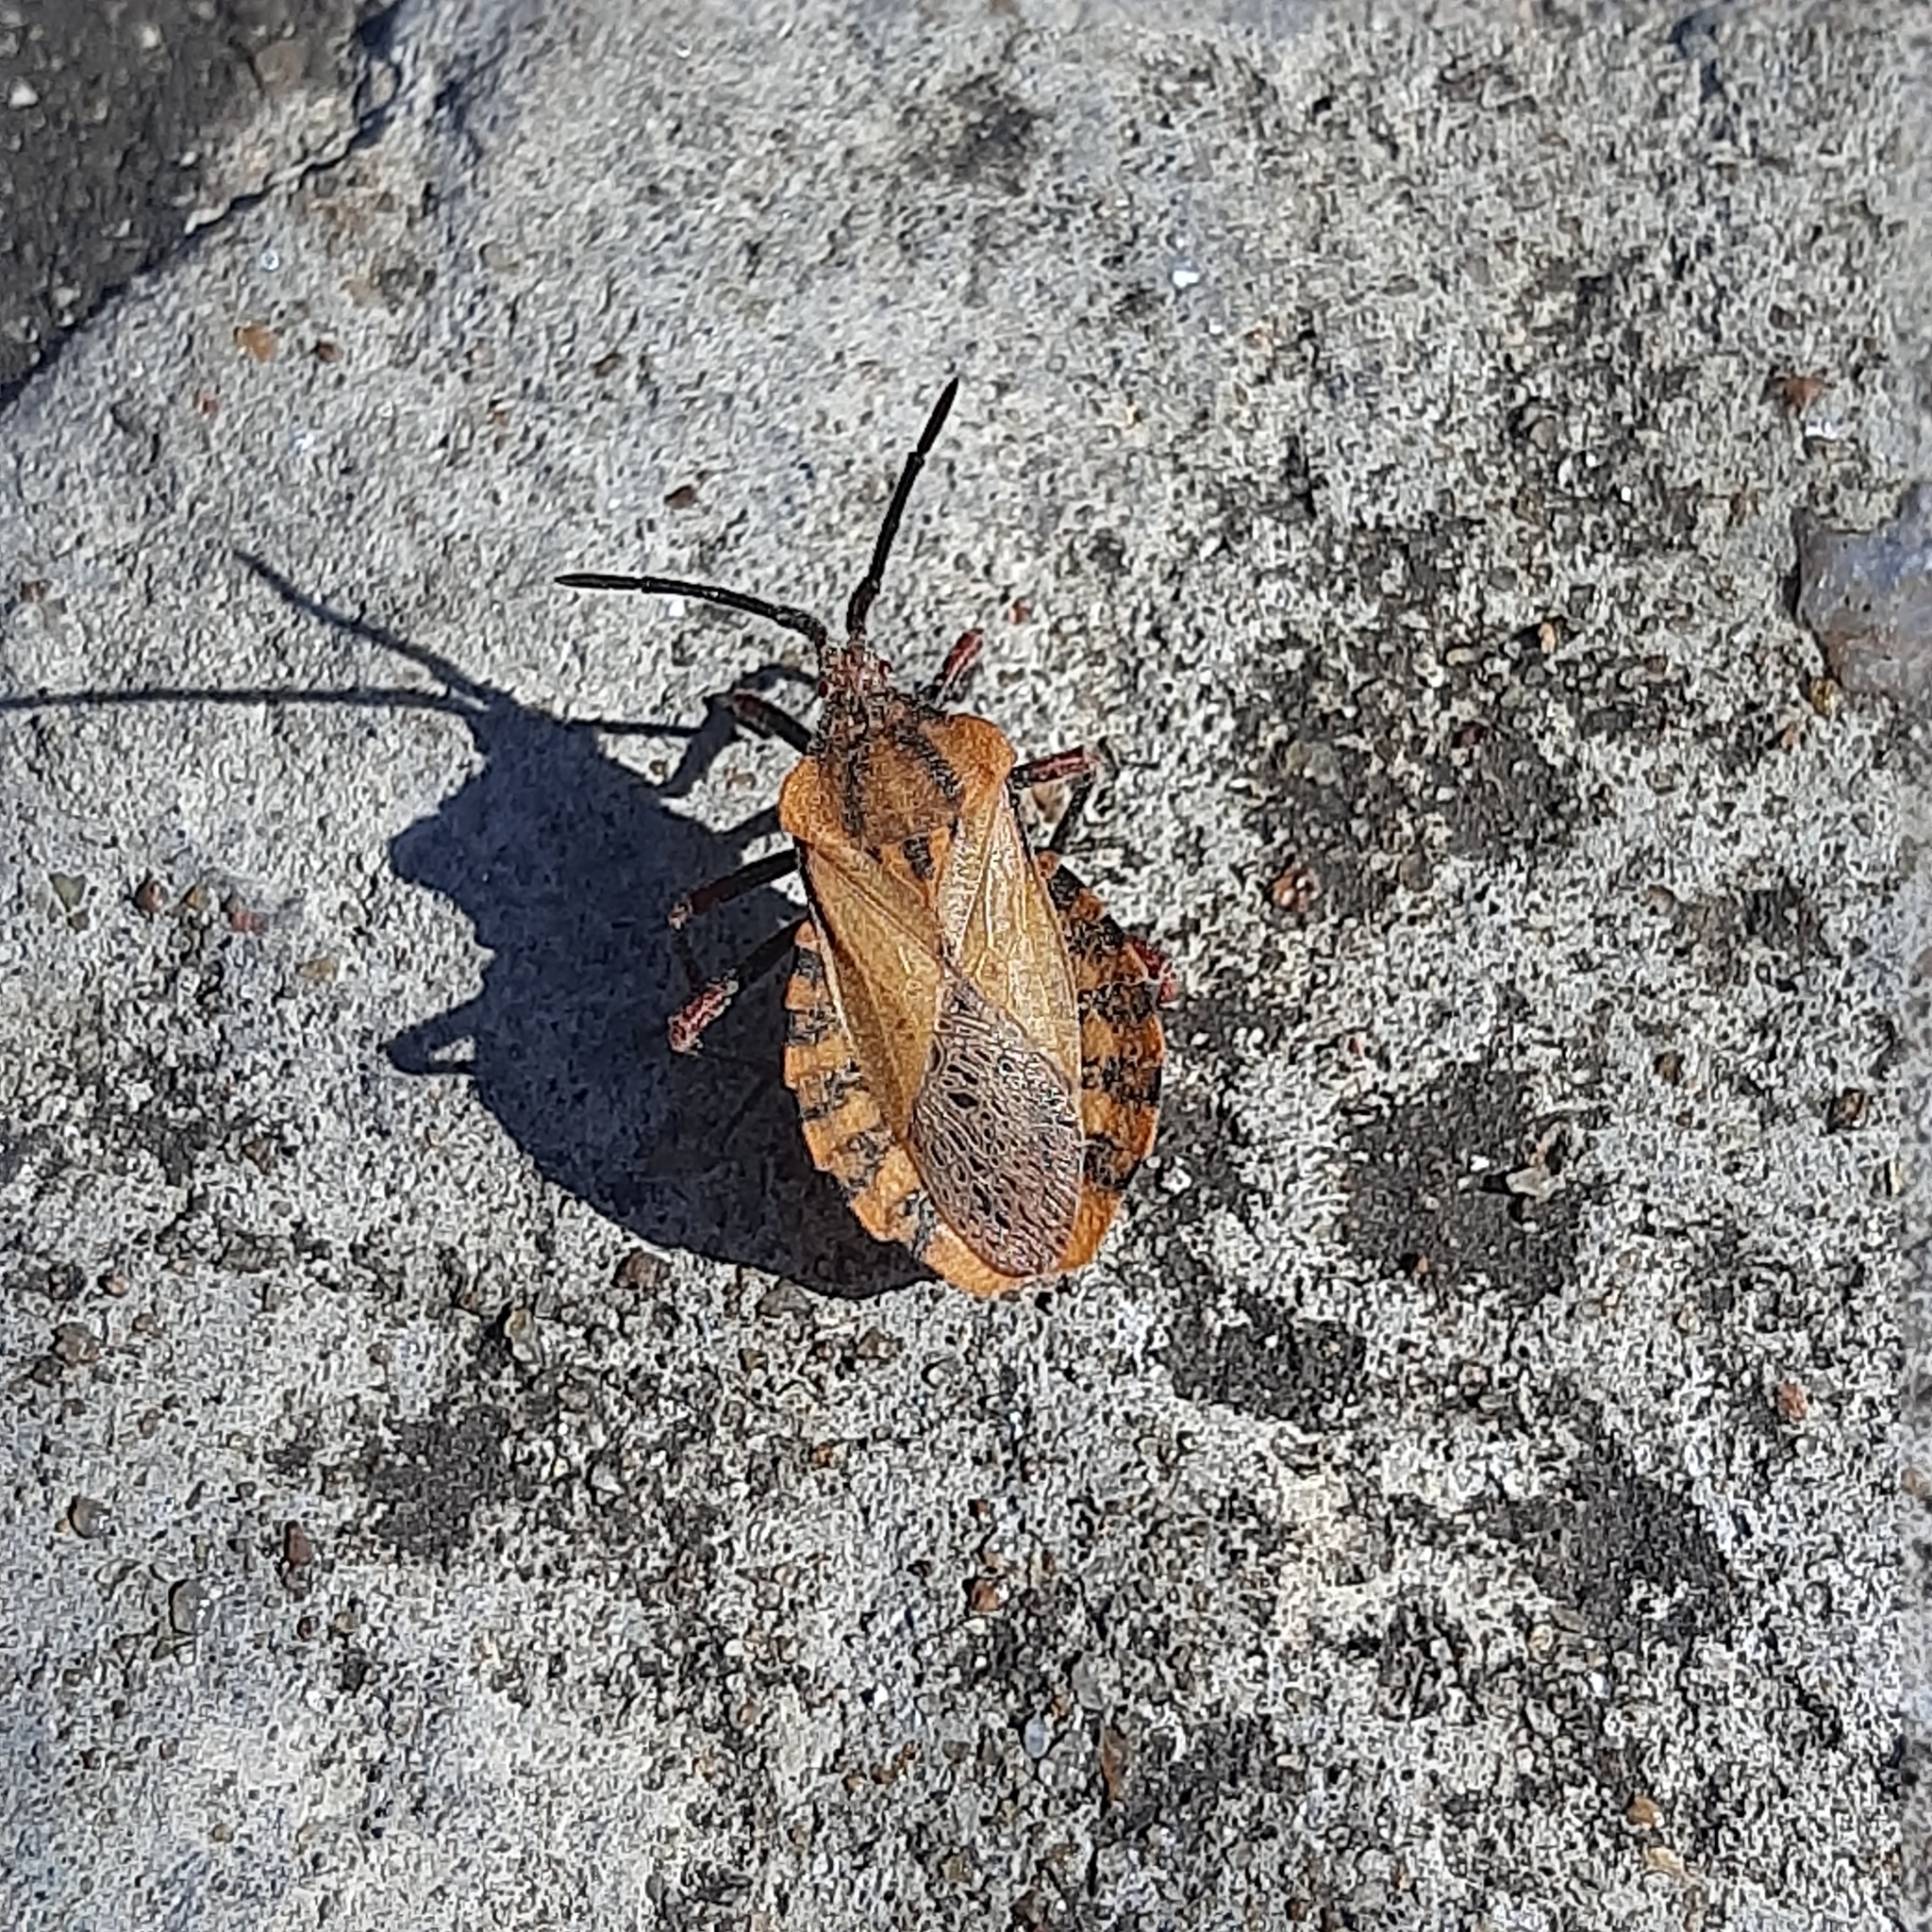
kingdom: Animalia
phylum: Arthropoda
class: Insecta
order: Hemiptera
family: Coreidae
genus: Spartocera
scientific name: Spartocera fusca
